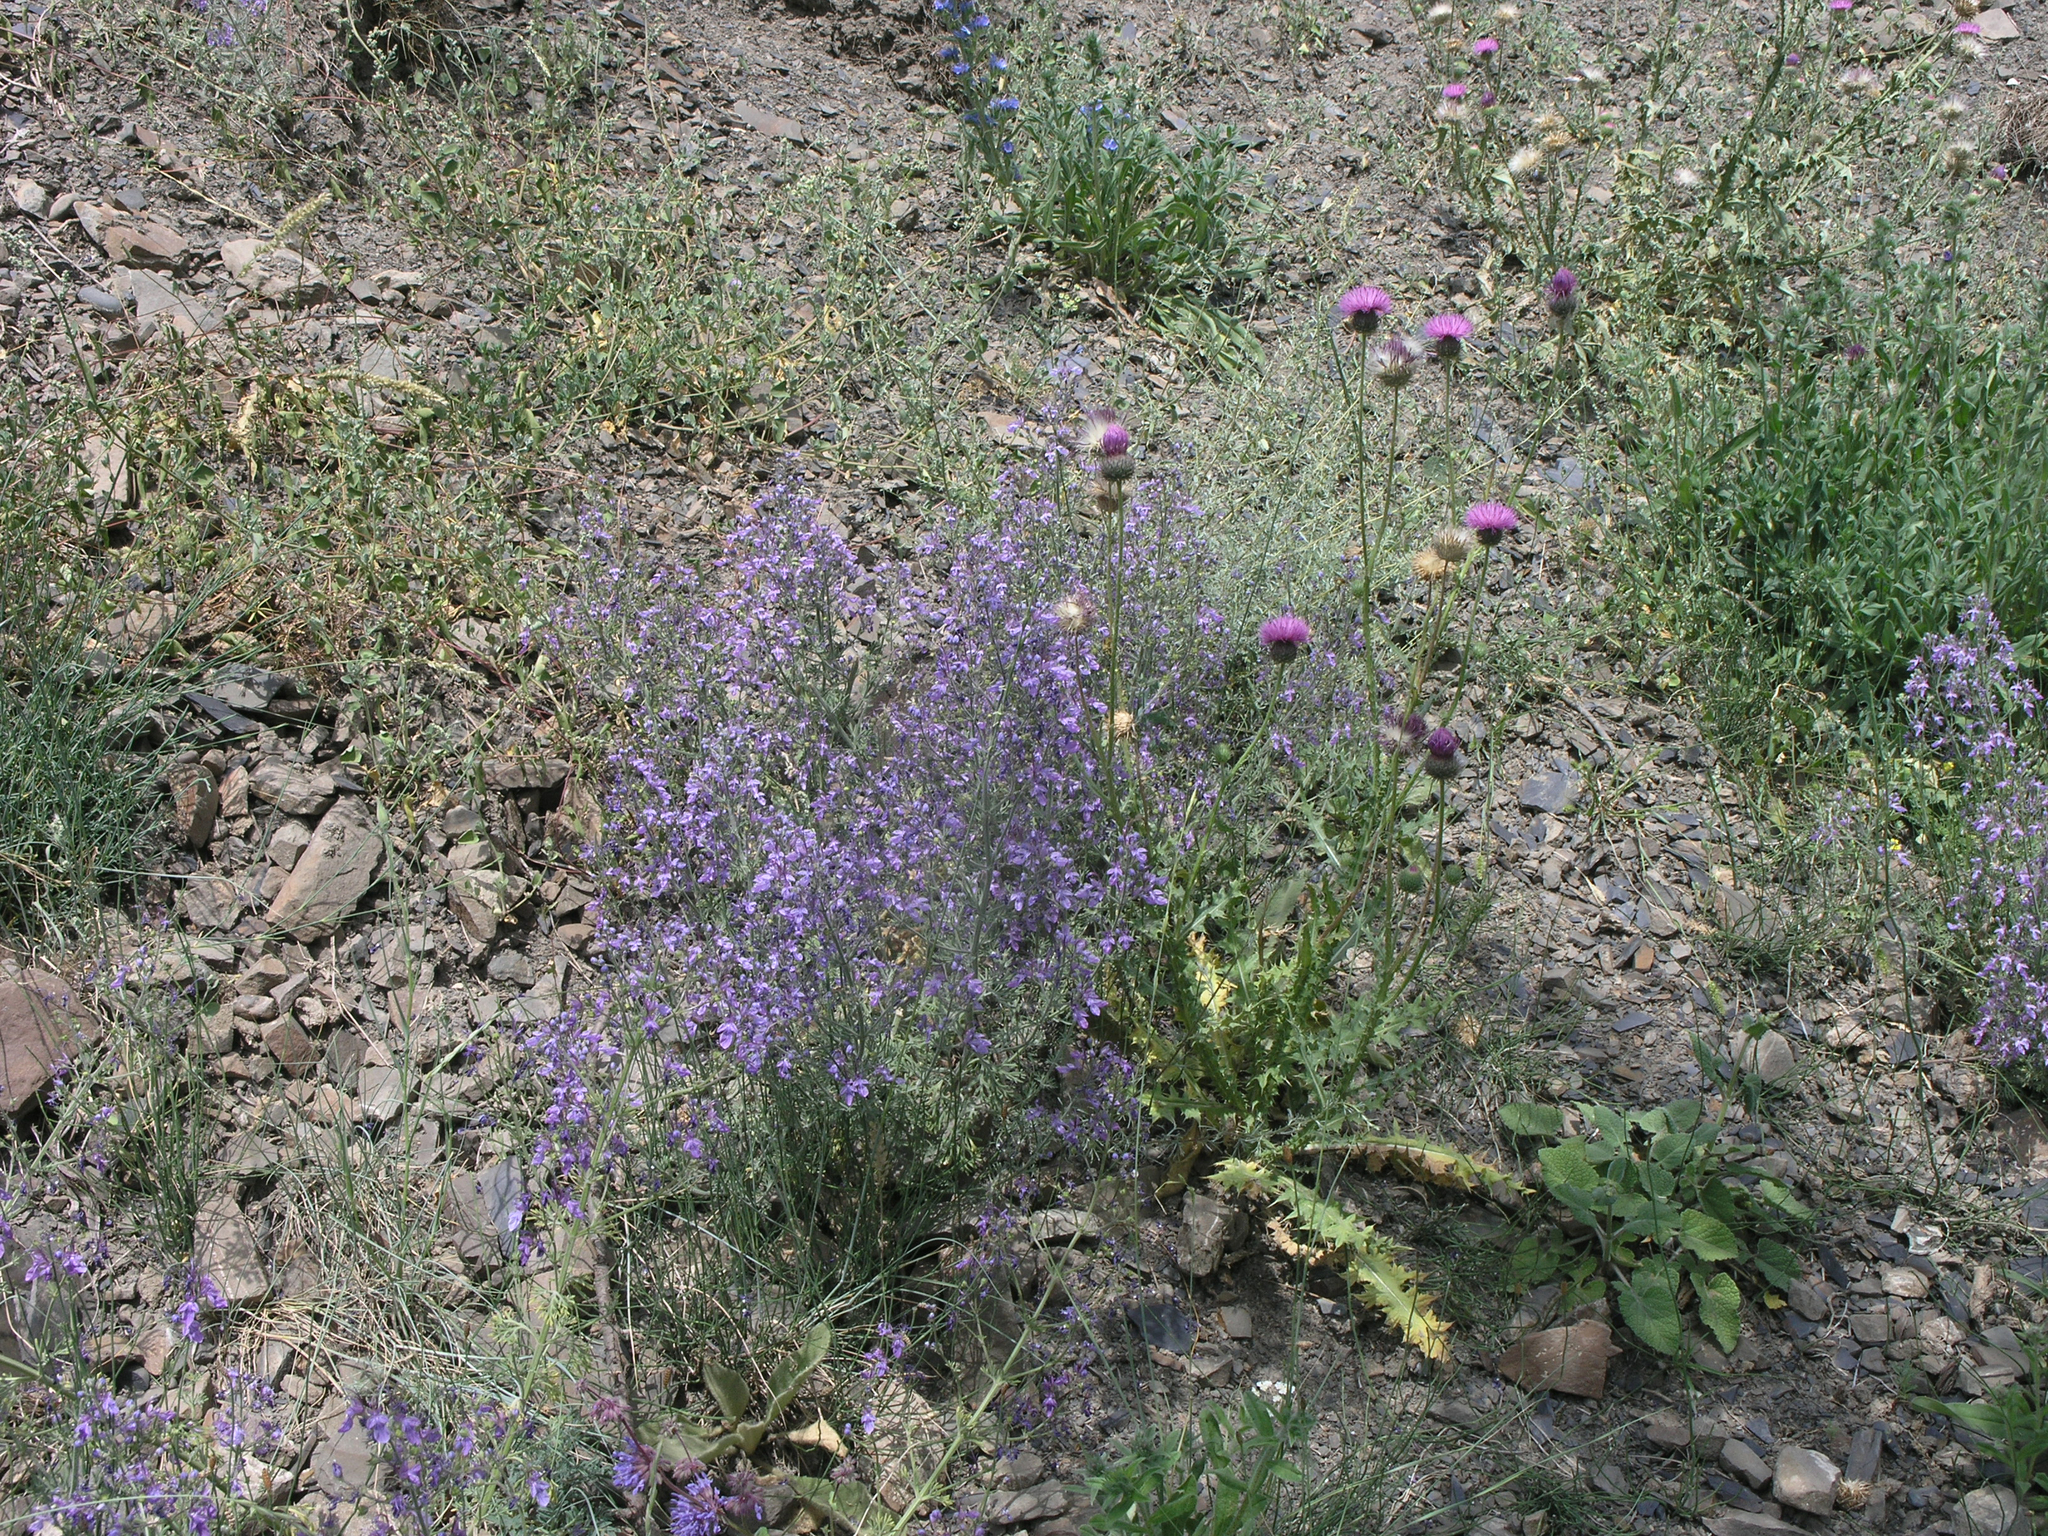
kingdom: Plantae
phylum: Tracheophyta
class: Magnoliopsida
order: Lamiales
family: Lamiaceae
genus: Teucrium
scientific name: Teucrium orientale
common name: Oriental germander
